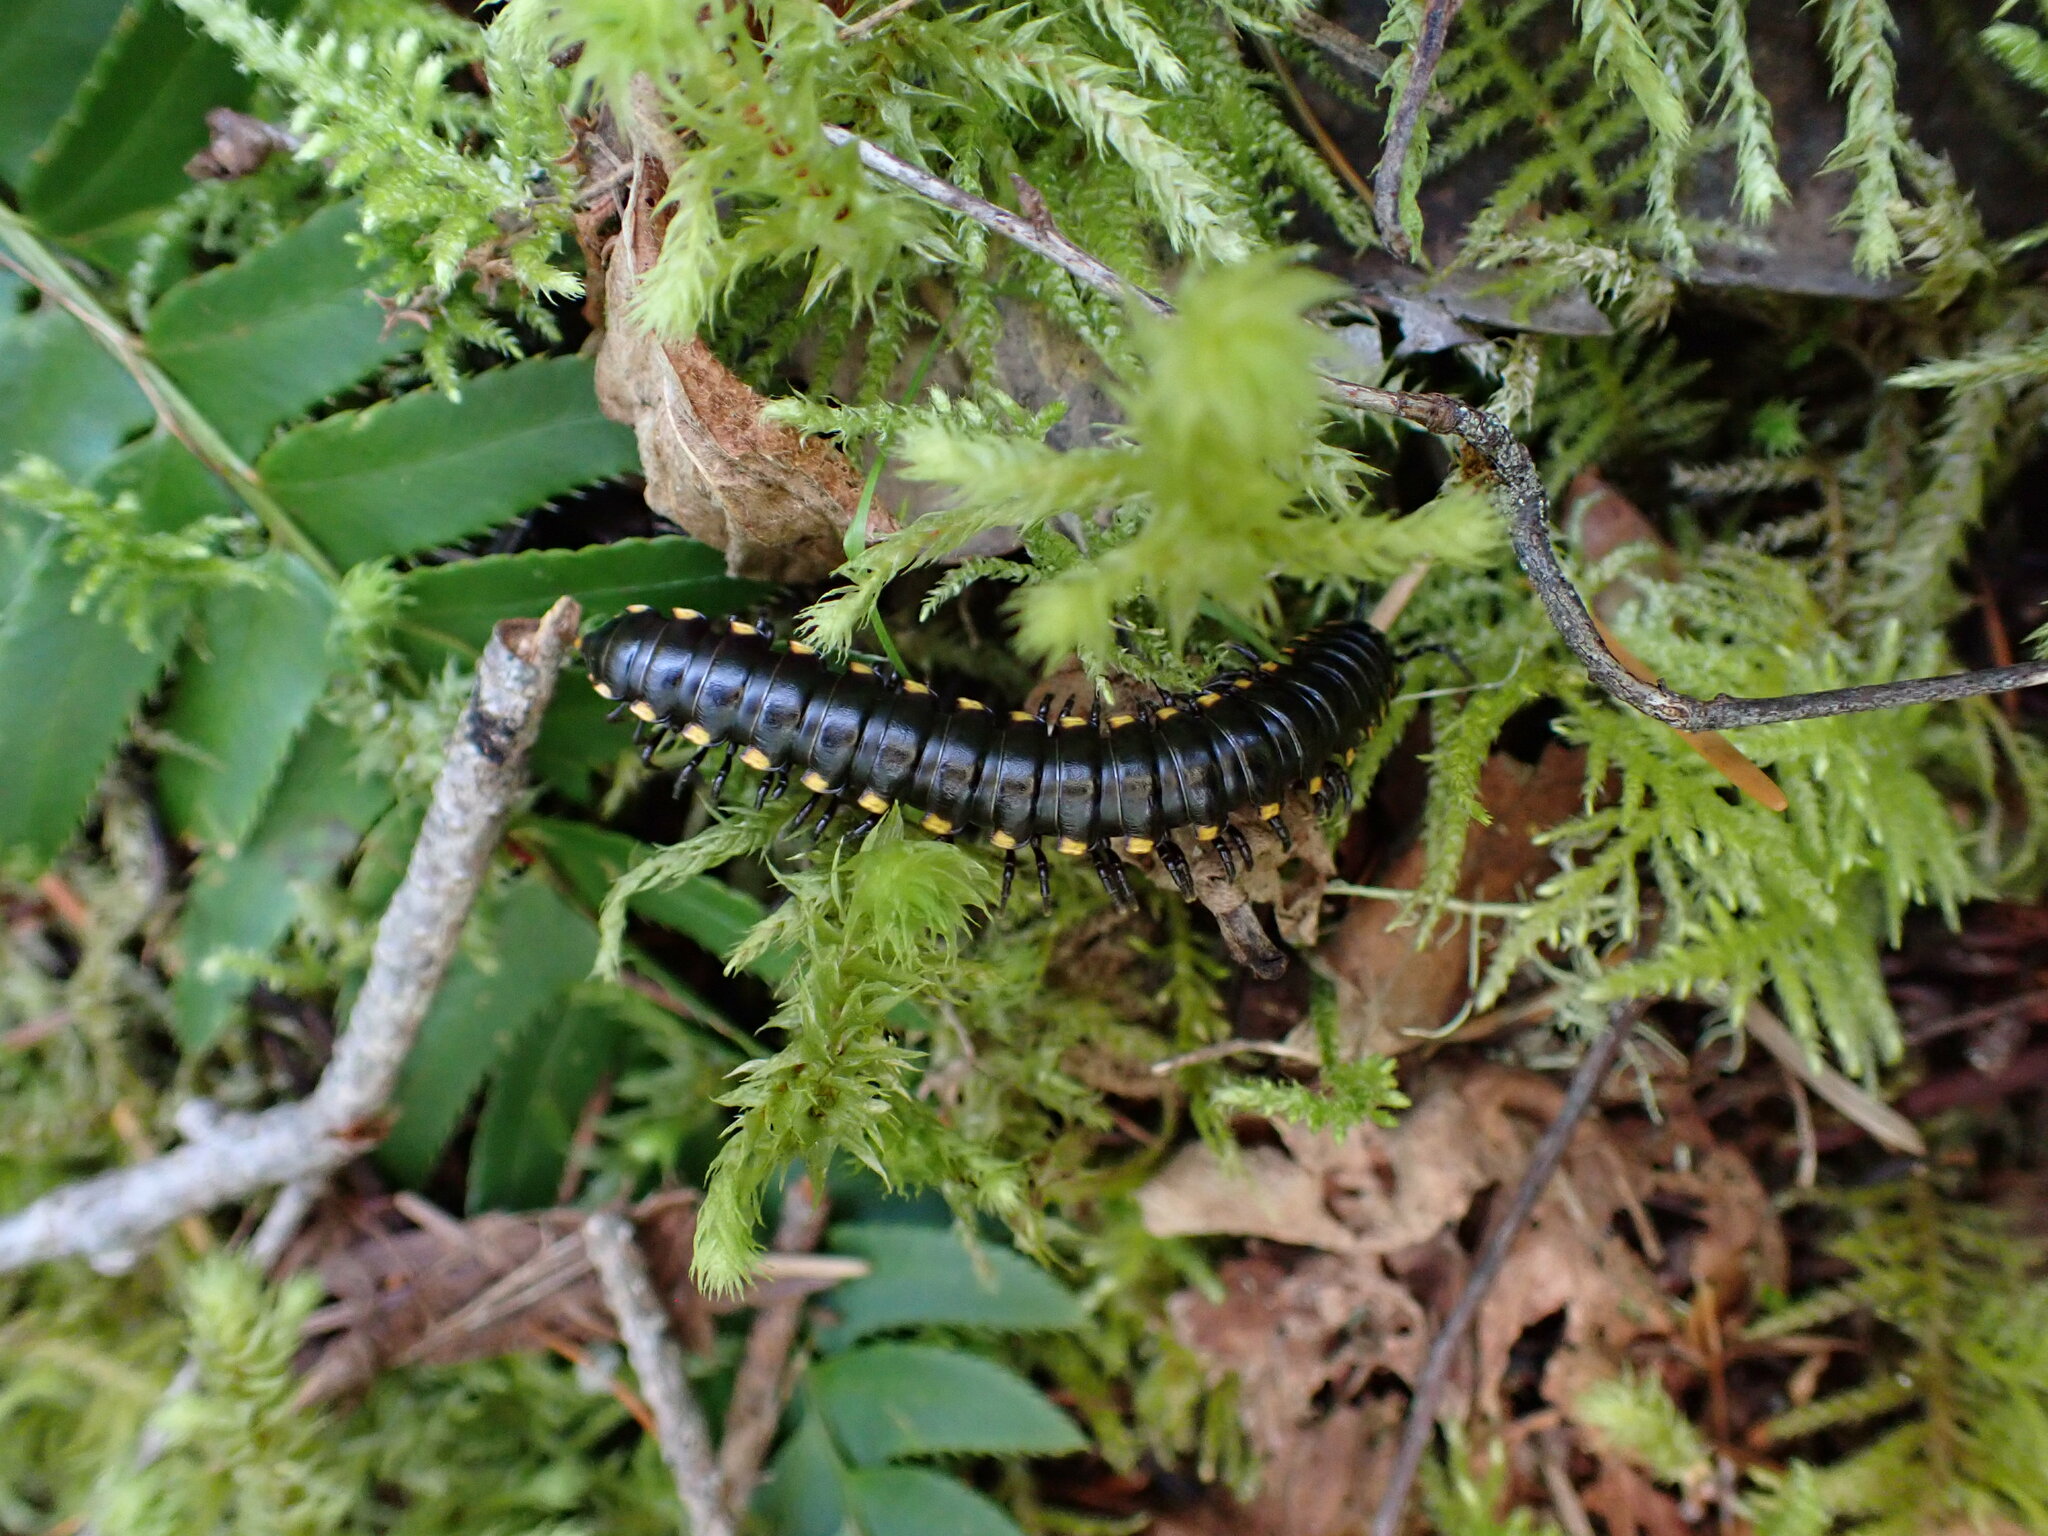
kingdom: Animalia
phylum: Arthropoda
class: Diplopoda
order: Polydesmida
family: Xystodesmidae
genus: Harpaphe
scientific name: Harpaphe haydeniana
